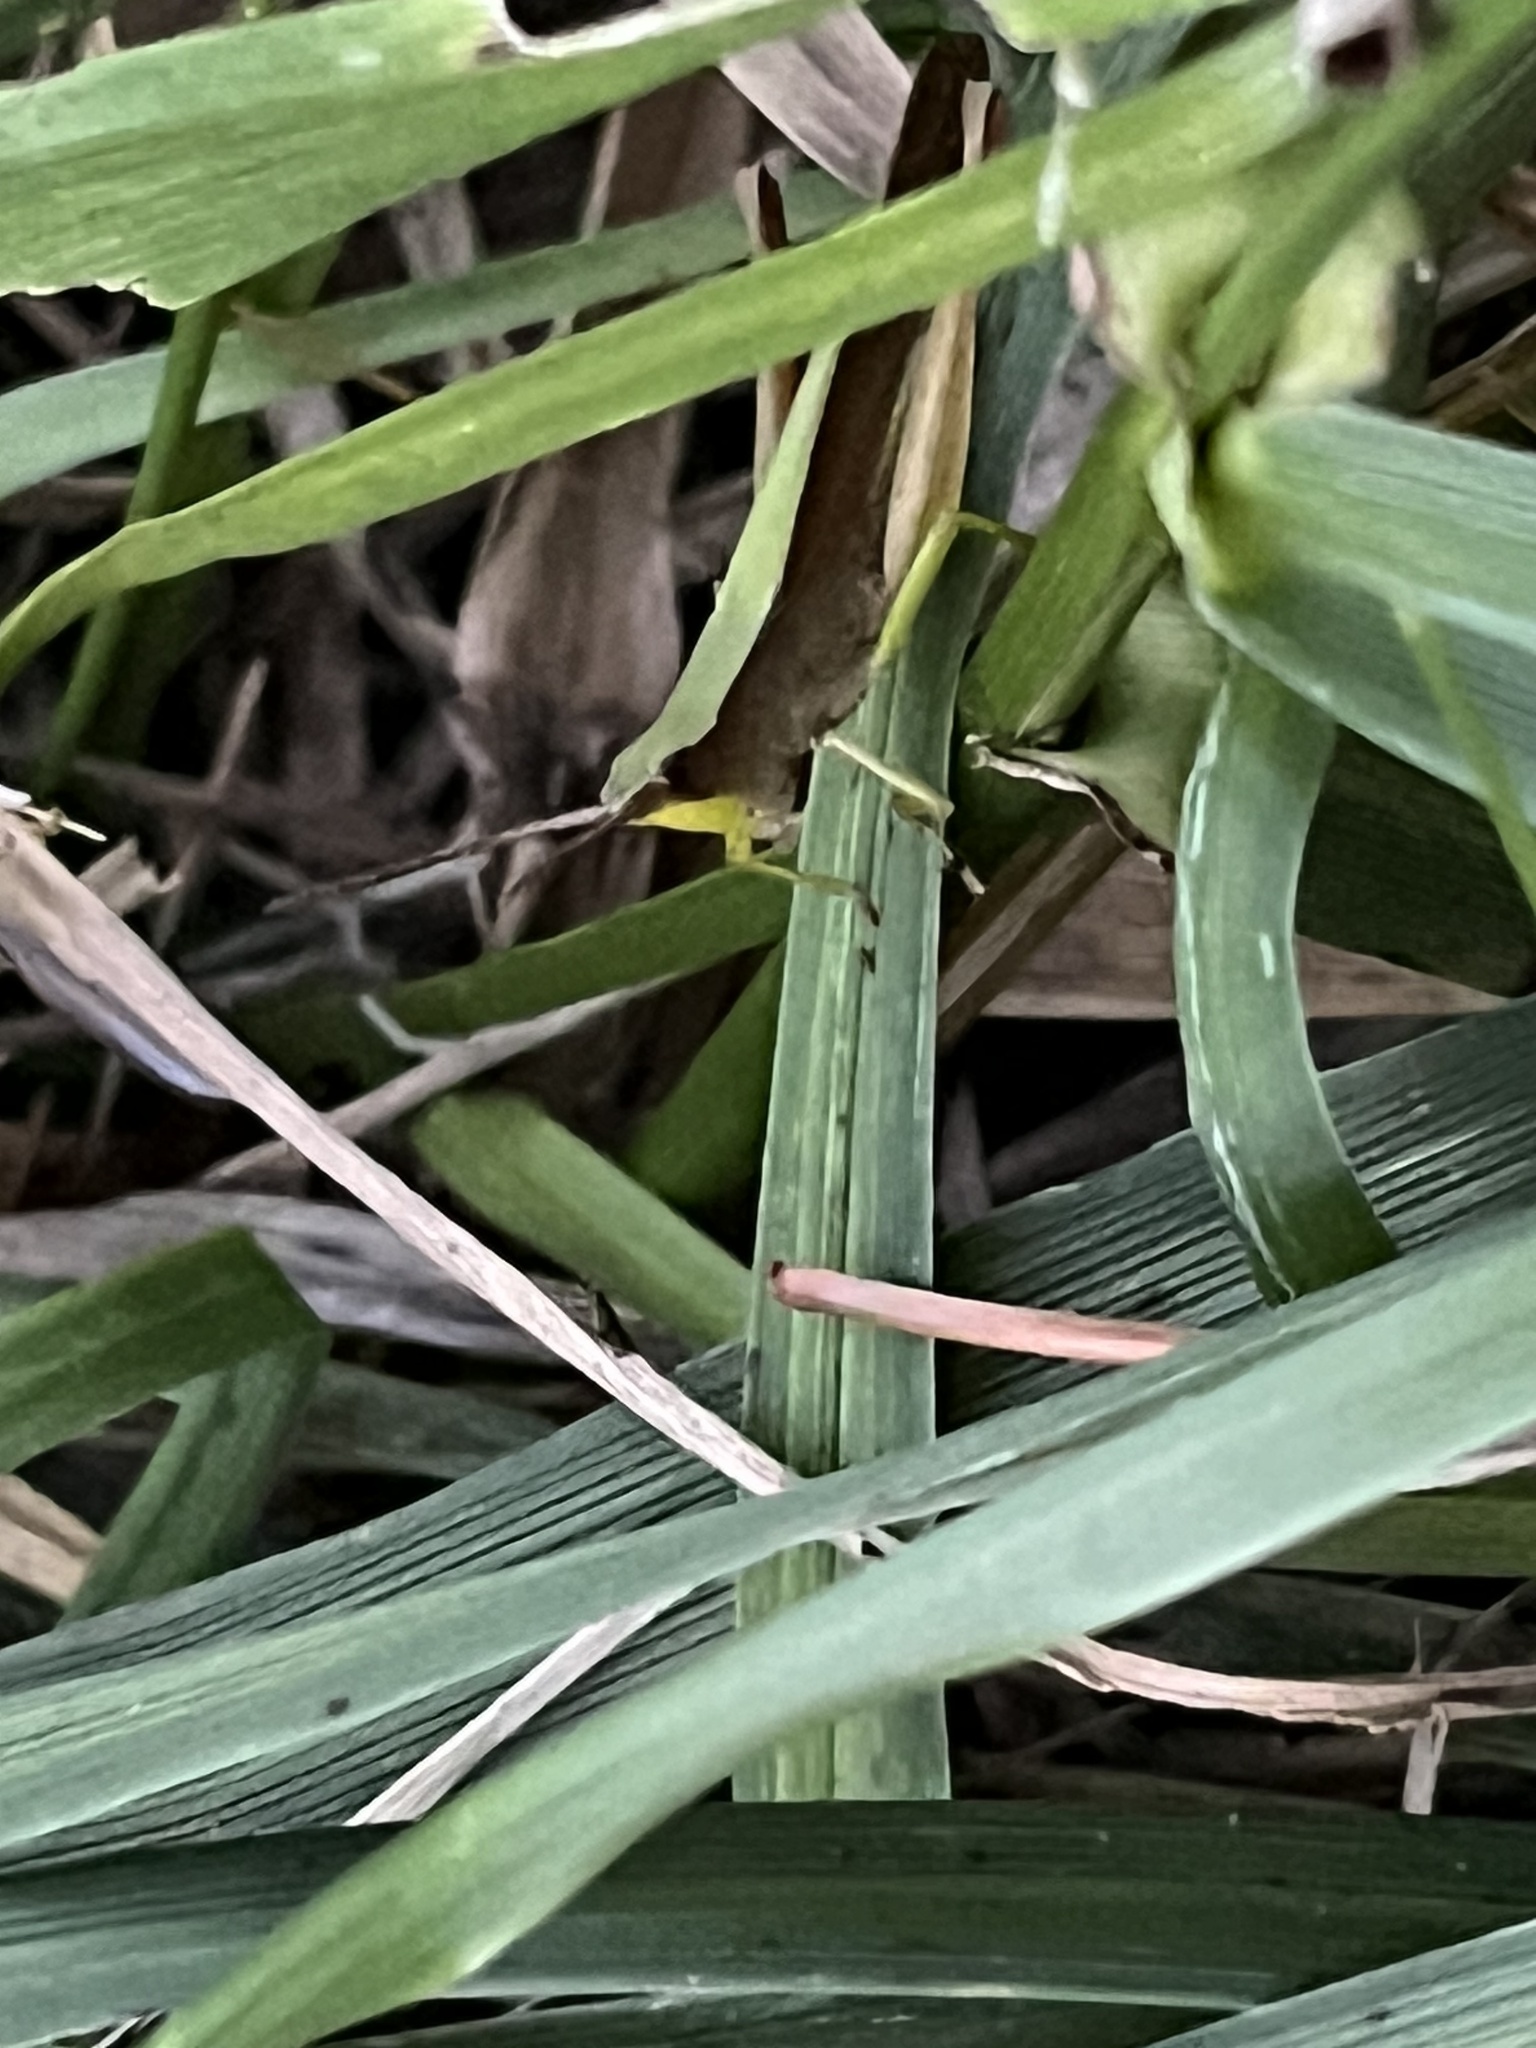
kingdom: Animalia
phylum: Arthropoda
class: Insecta
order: Orthoptera
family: Acrididae
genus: Metaleptea
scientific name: Metaleptea brevicornis
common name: Clipped-wing grasshopper
